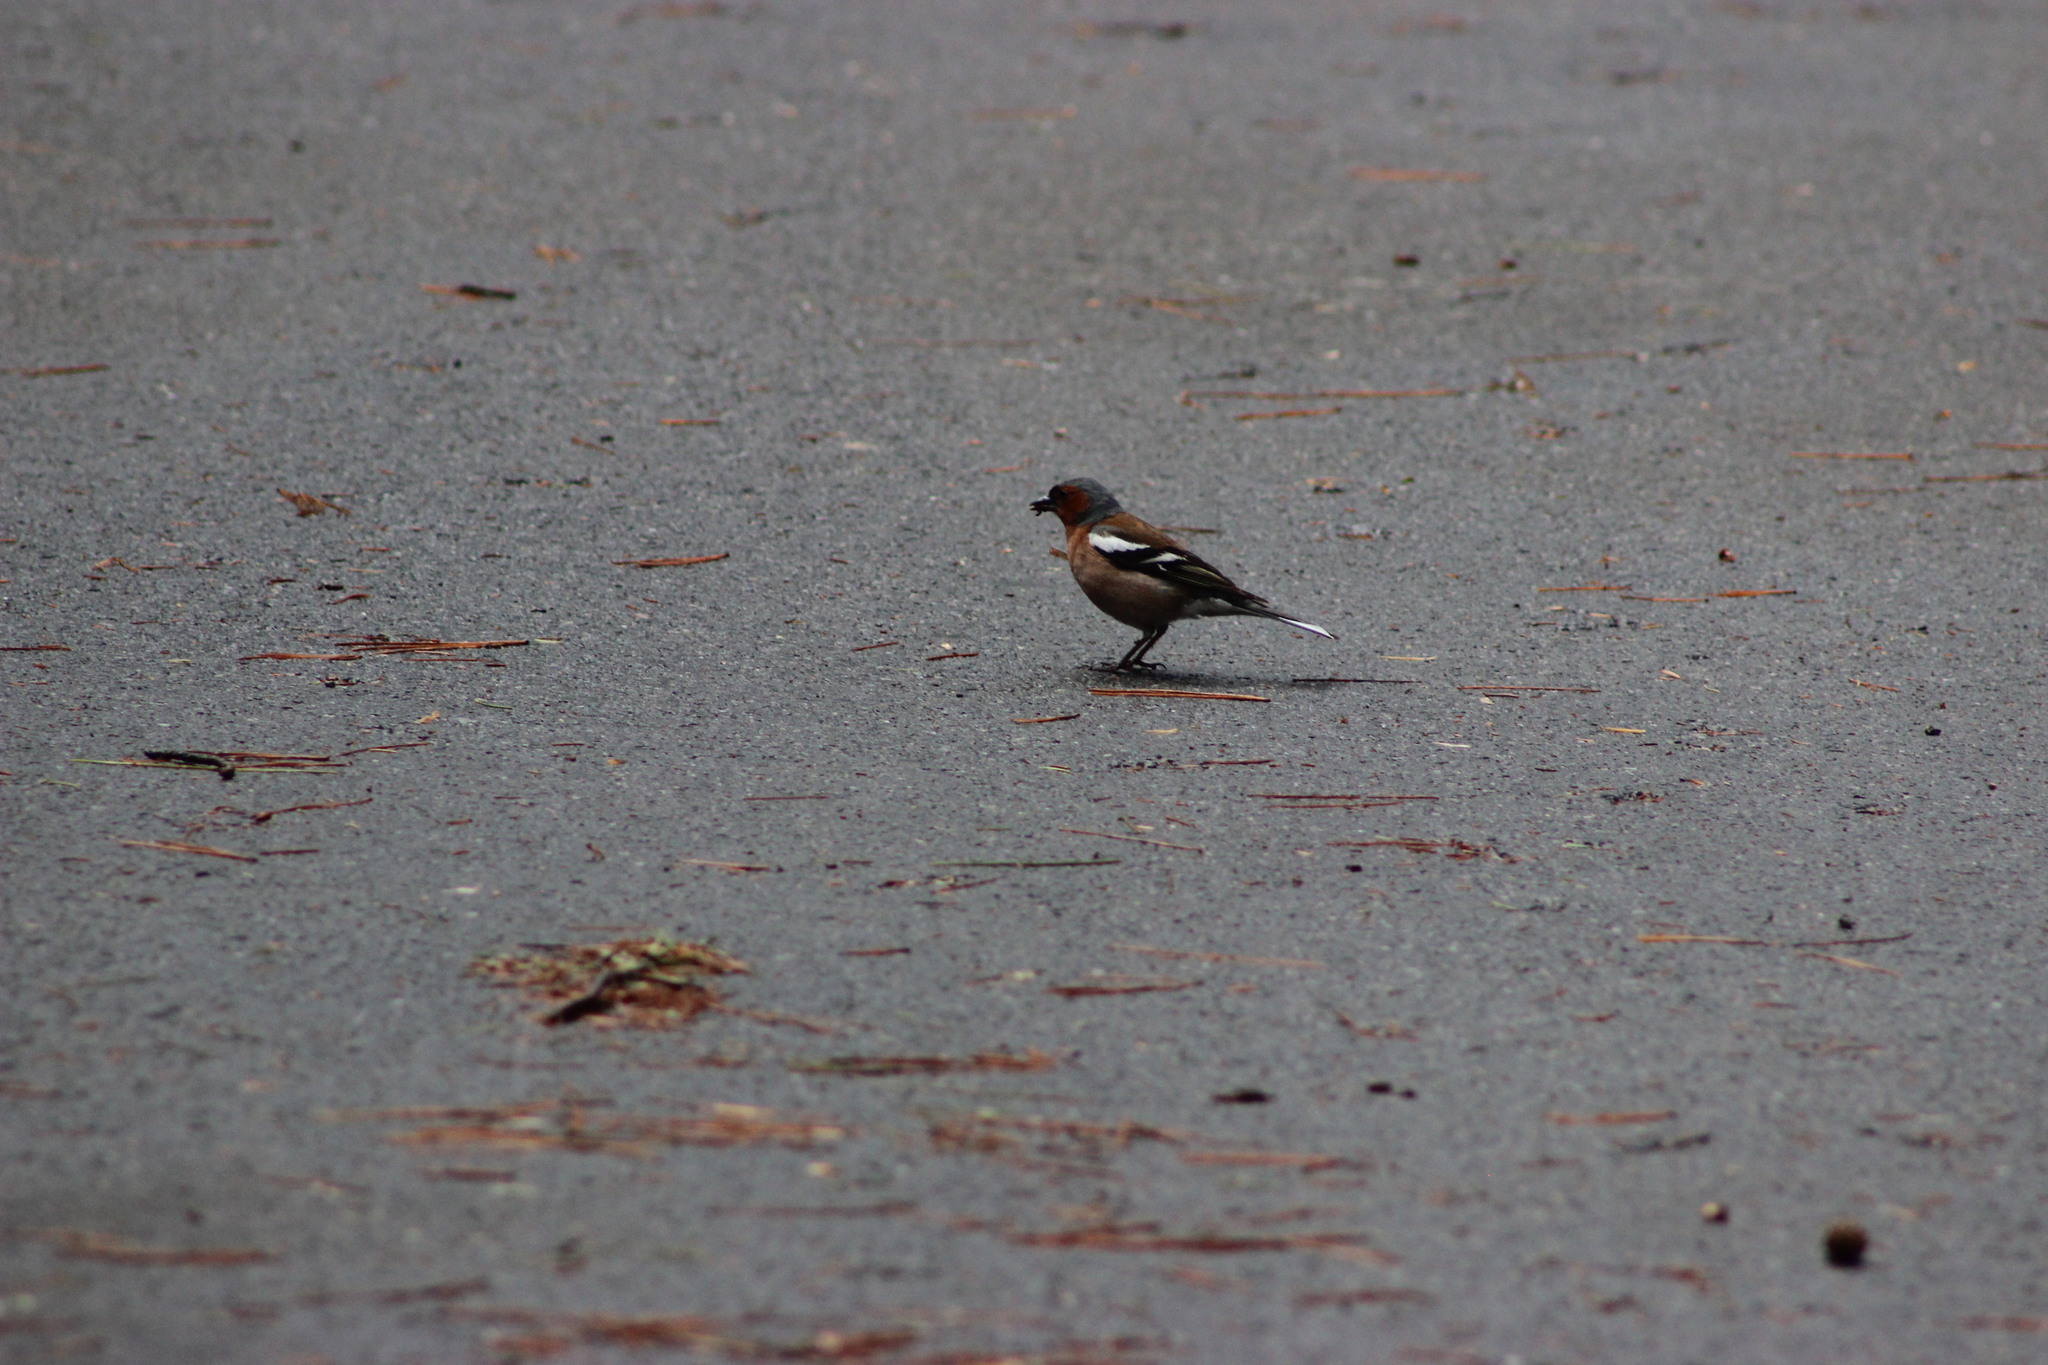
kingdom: Animalia
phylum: Chordata
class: Aves
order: Passeriformes
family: Fringillidae
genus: Fringilla
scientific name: Fringilla coelebs
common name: Common chaffinch
